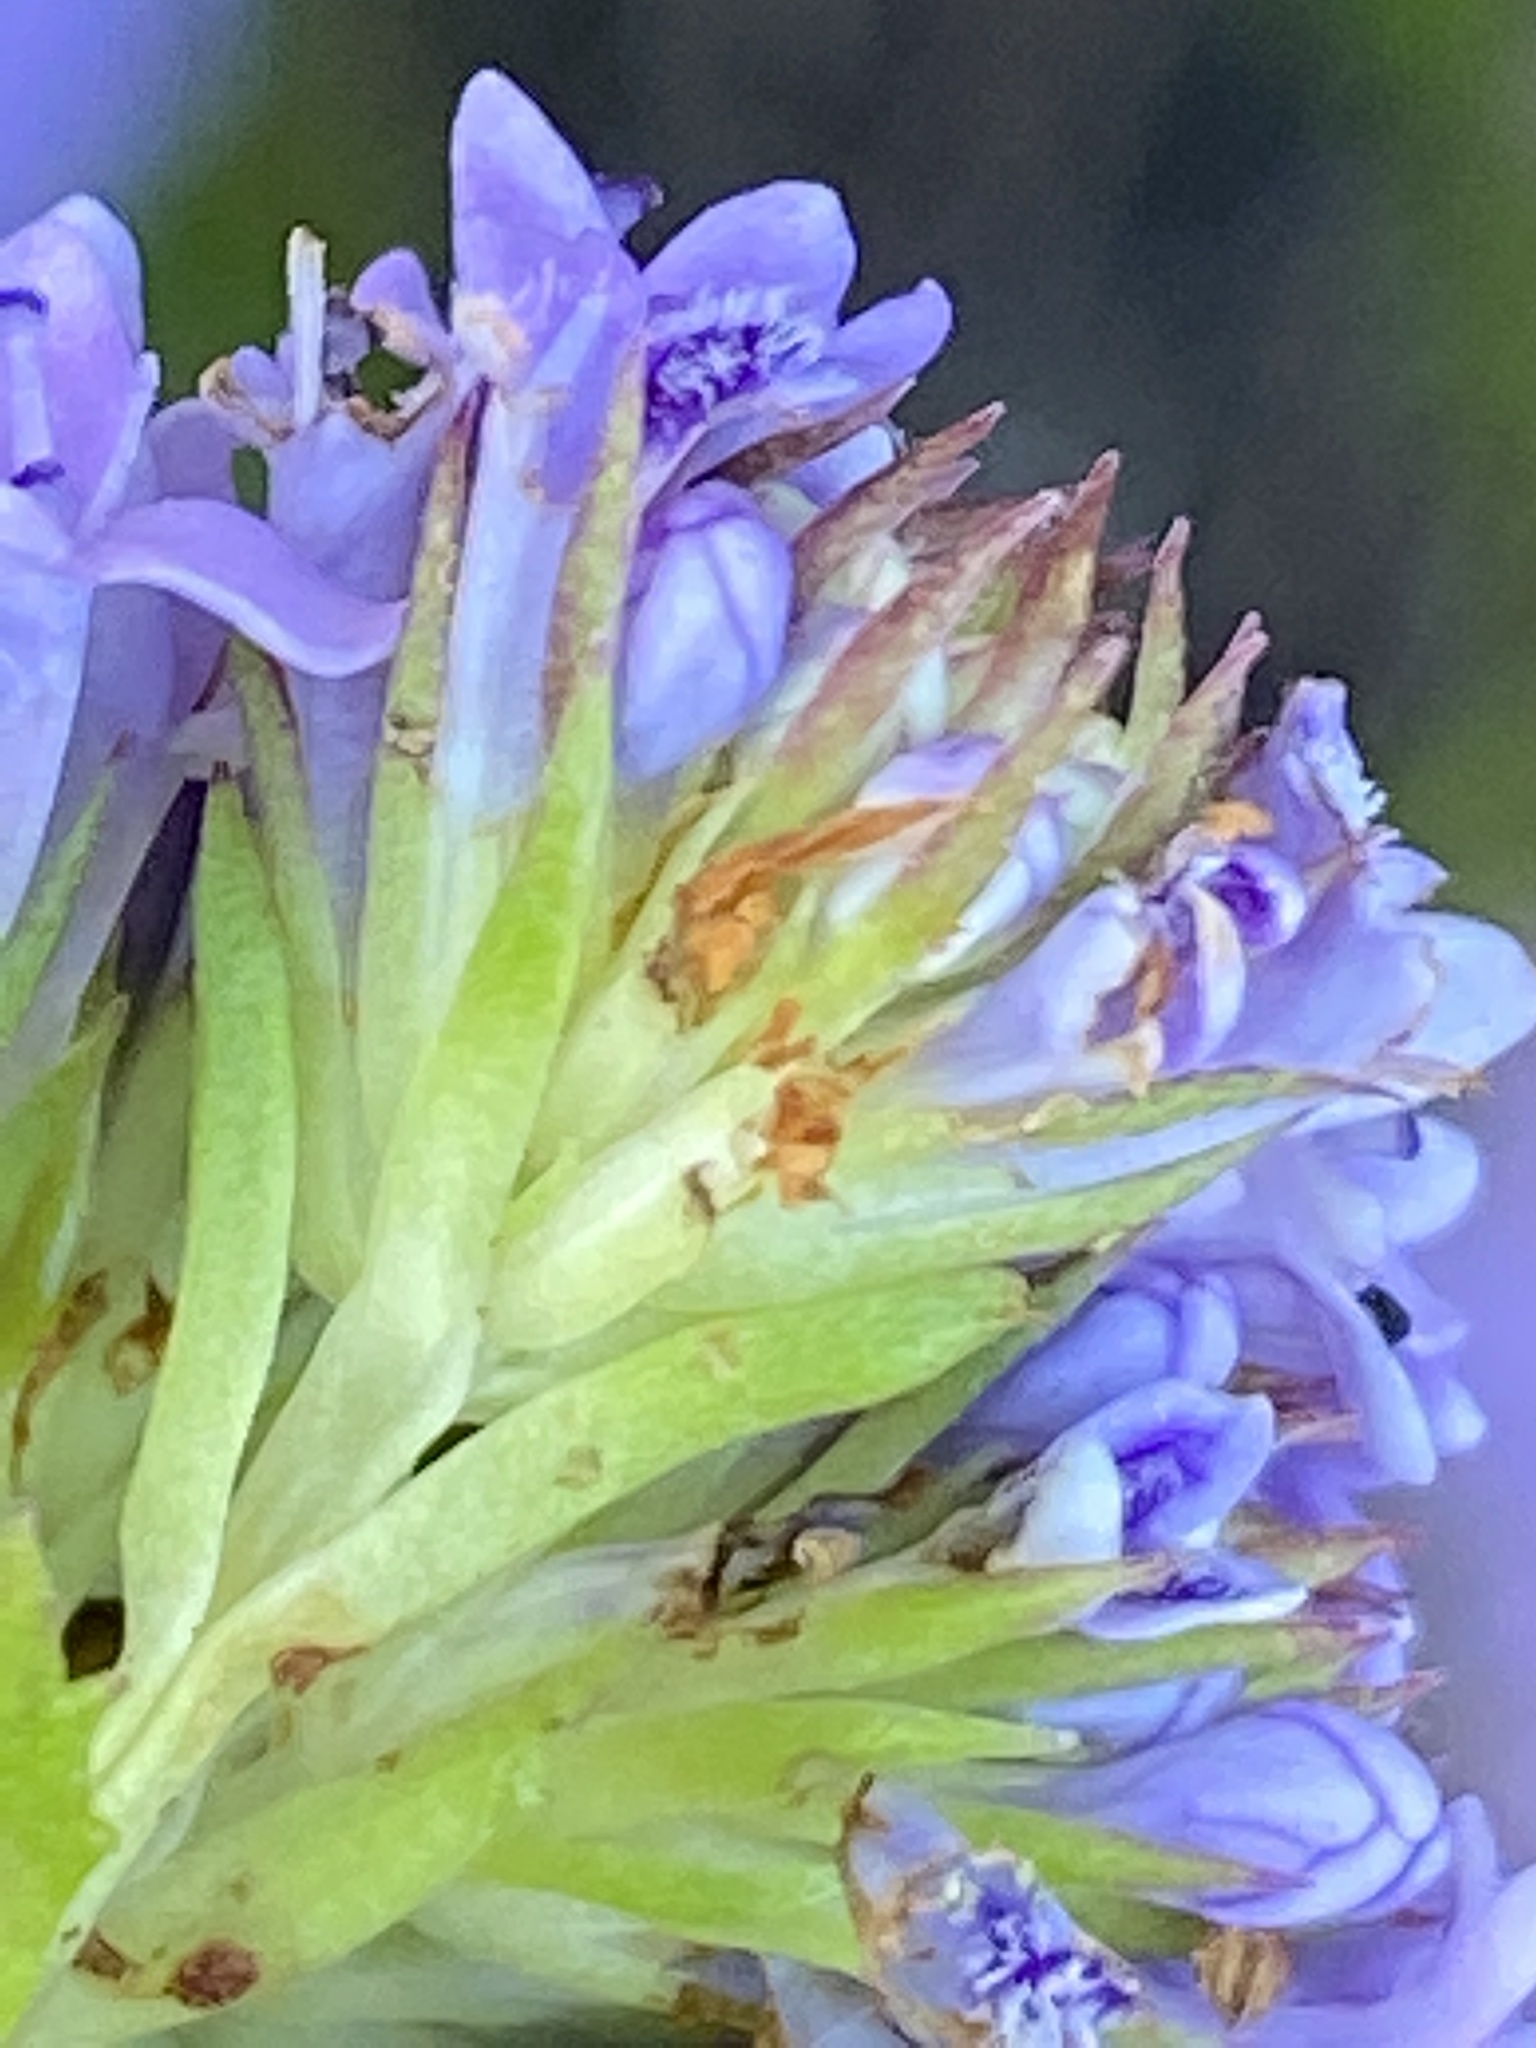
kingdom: Plantae
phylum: Tracheophyta
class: Magnoliopsida
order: Lamiales
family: Scrophulariaceae
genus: Pseudoselago
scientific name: Pseudoselago langebergensis
